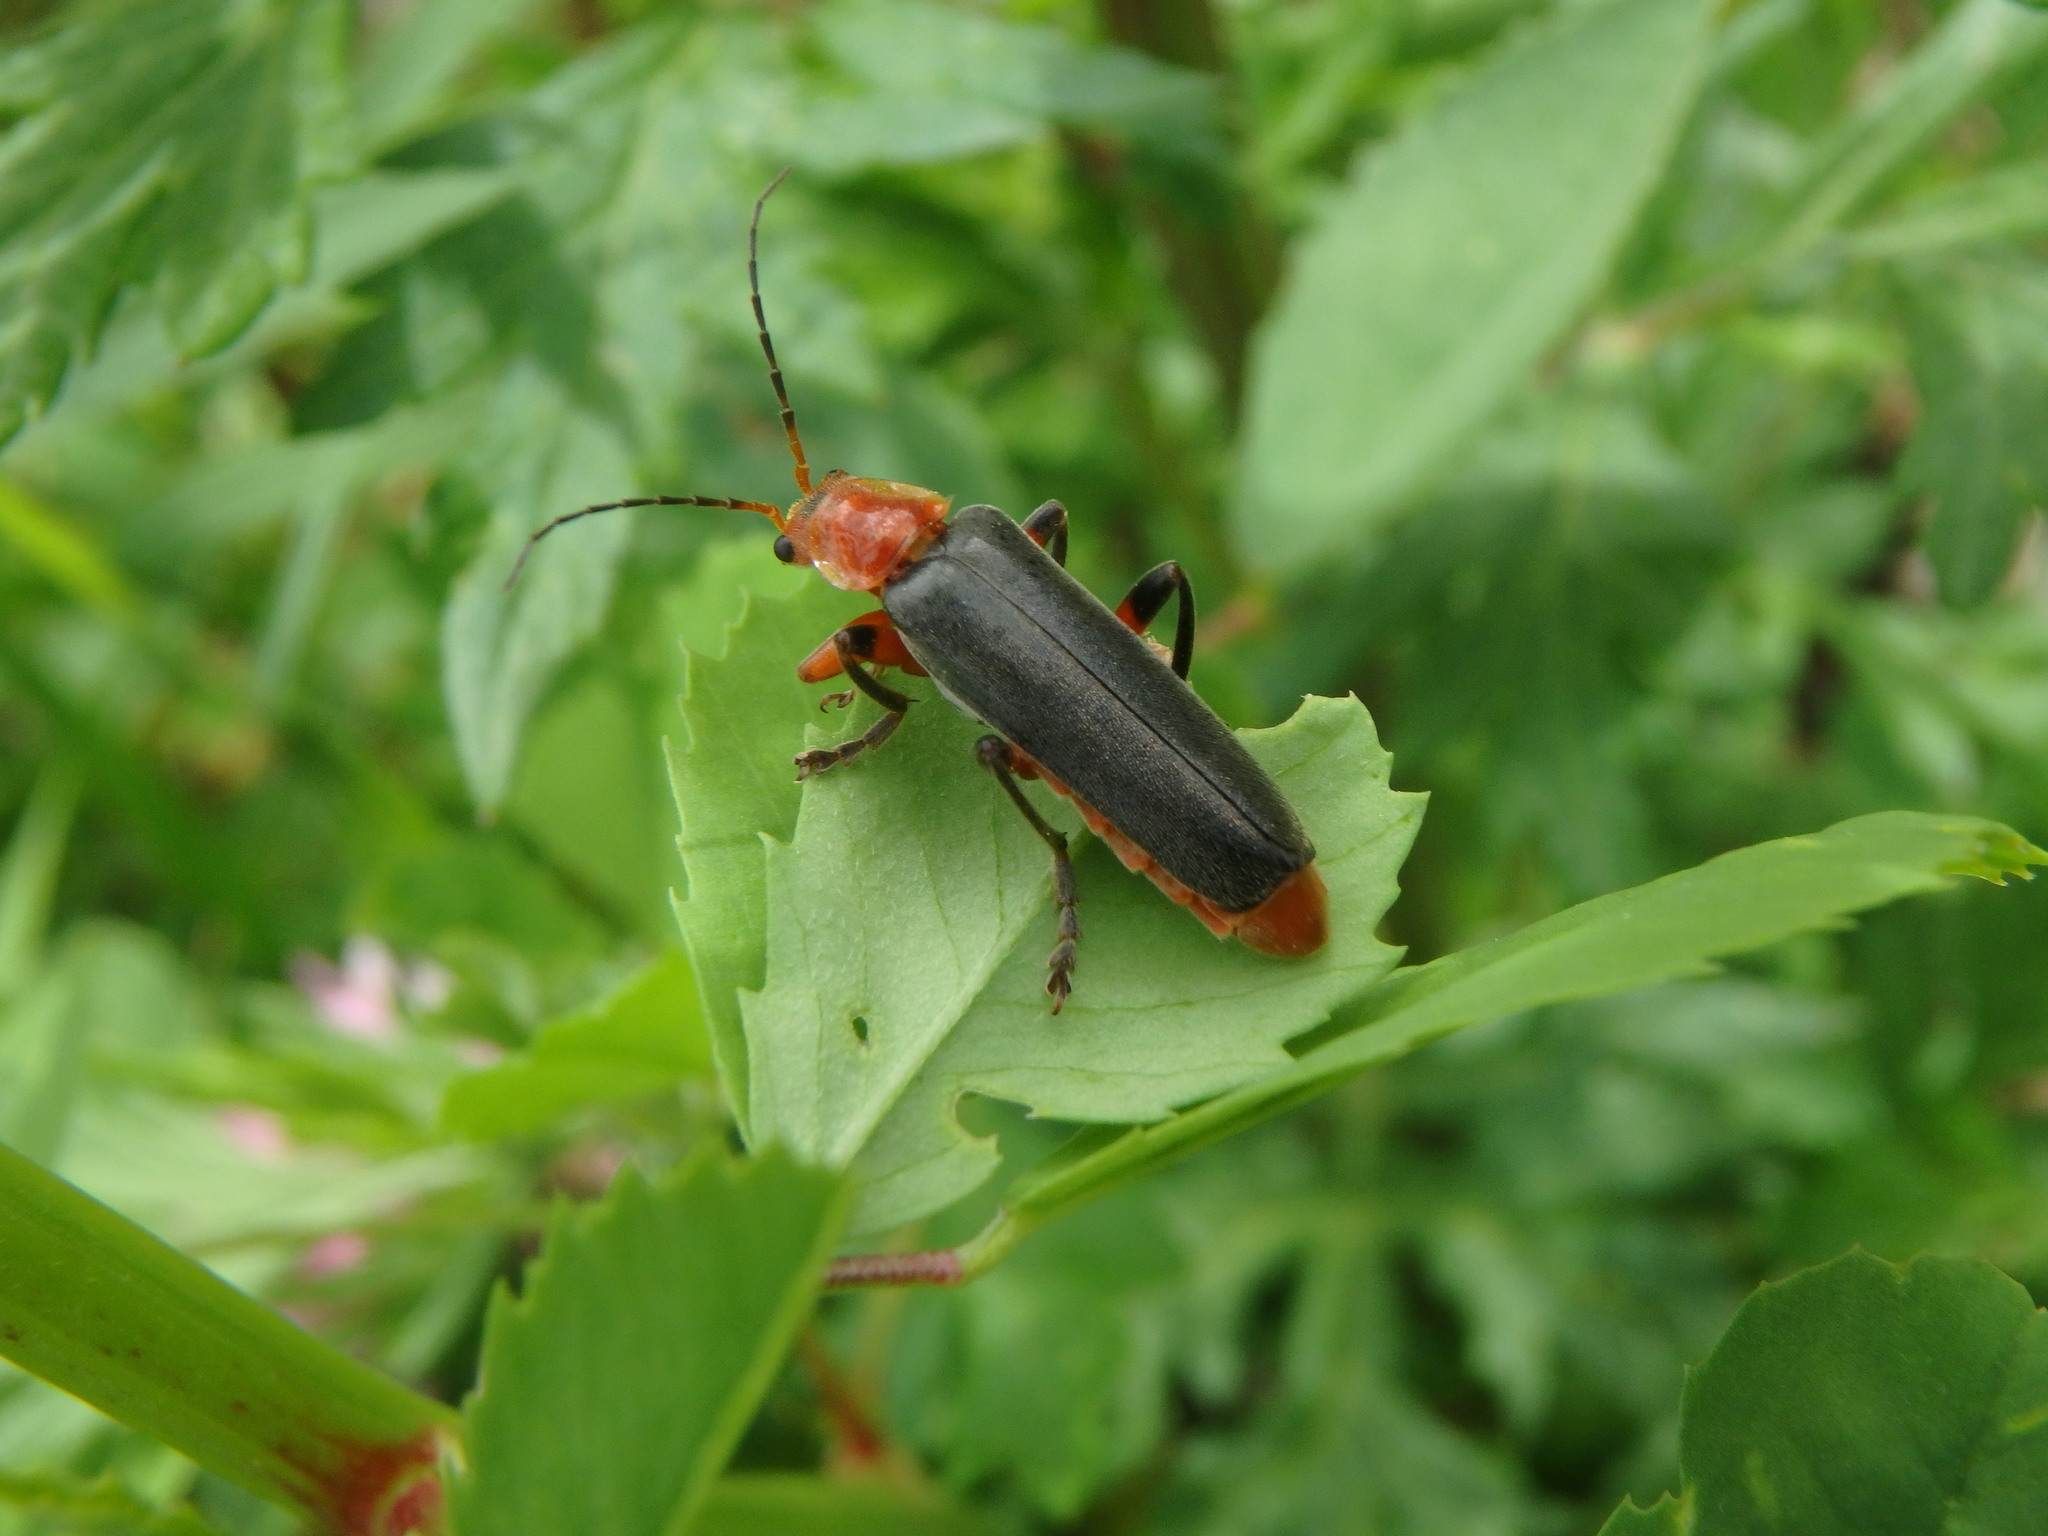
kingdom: Animalia
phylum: Arthropoda
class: Insecta
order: Coleoptera
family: Cantharidae
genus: Cantharis
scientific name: Cantharis livida
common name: Livid soldier beetle
